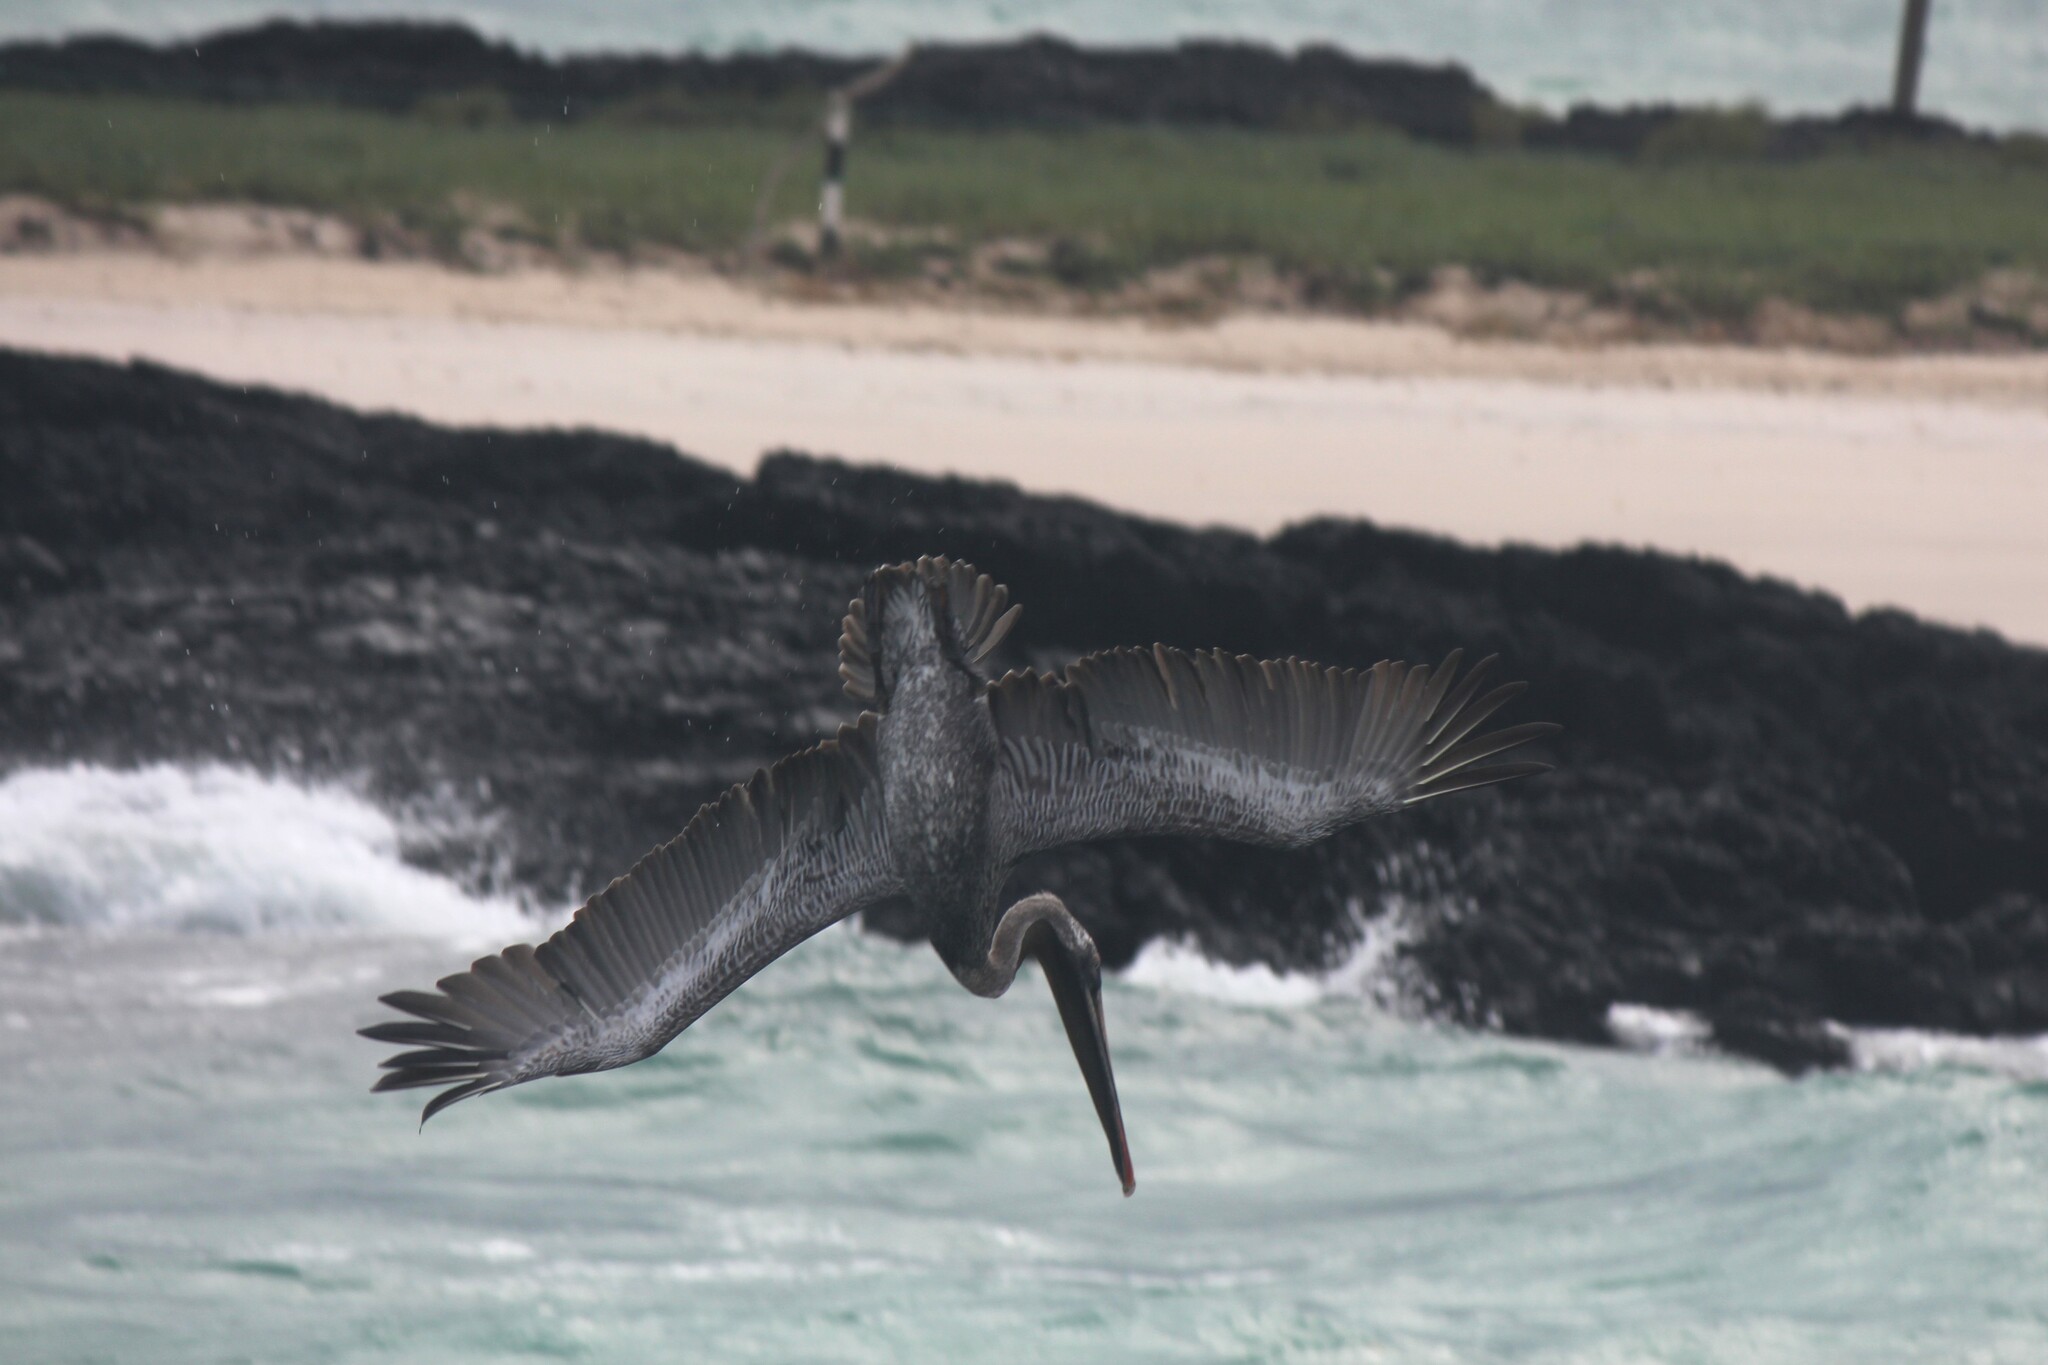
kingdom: Animalia
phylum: Chordata
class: Aves
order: Pelecaniformes
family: Pelecanidae
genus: Pelecanus
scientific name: Pelecanus occidentalis
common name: Brown pelican
